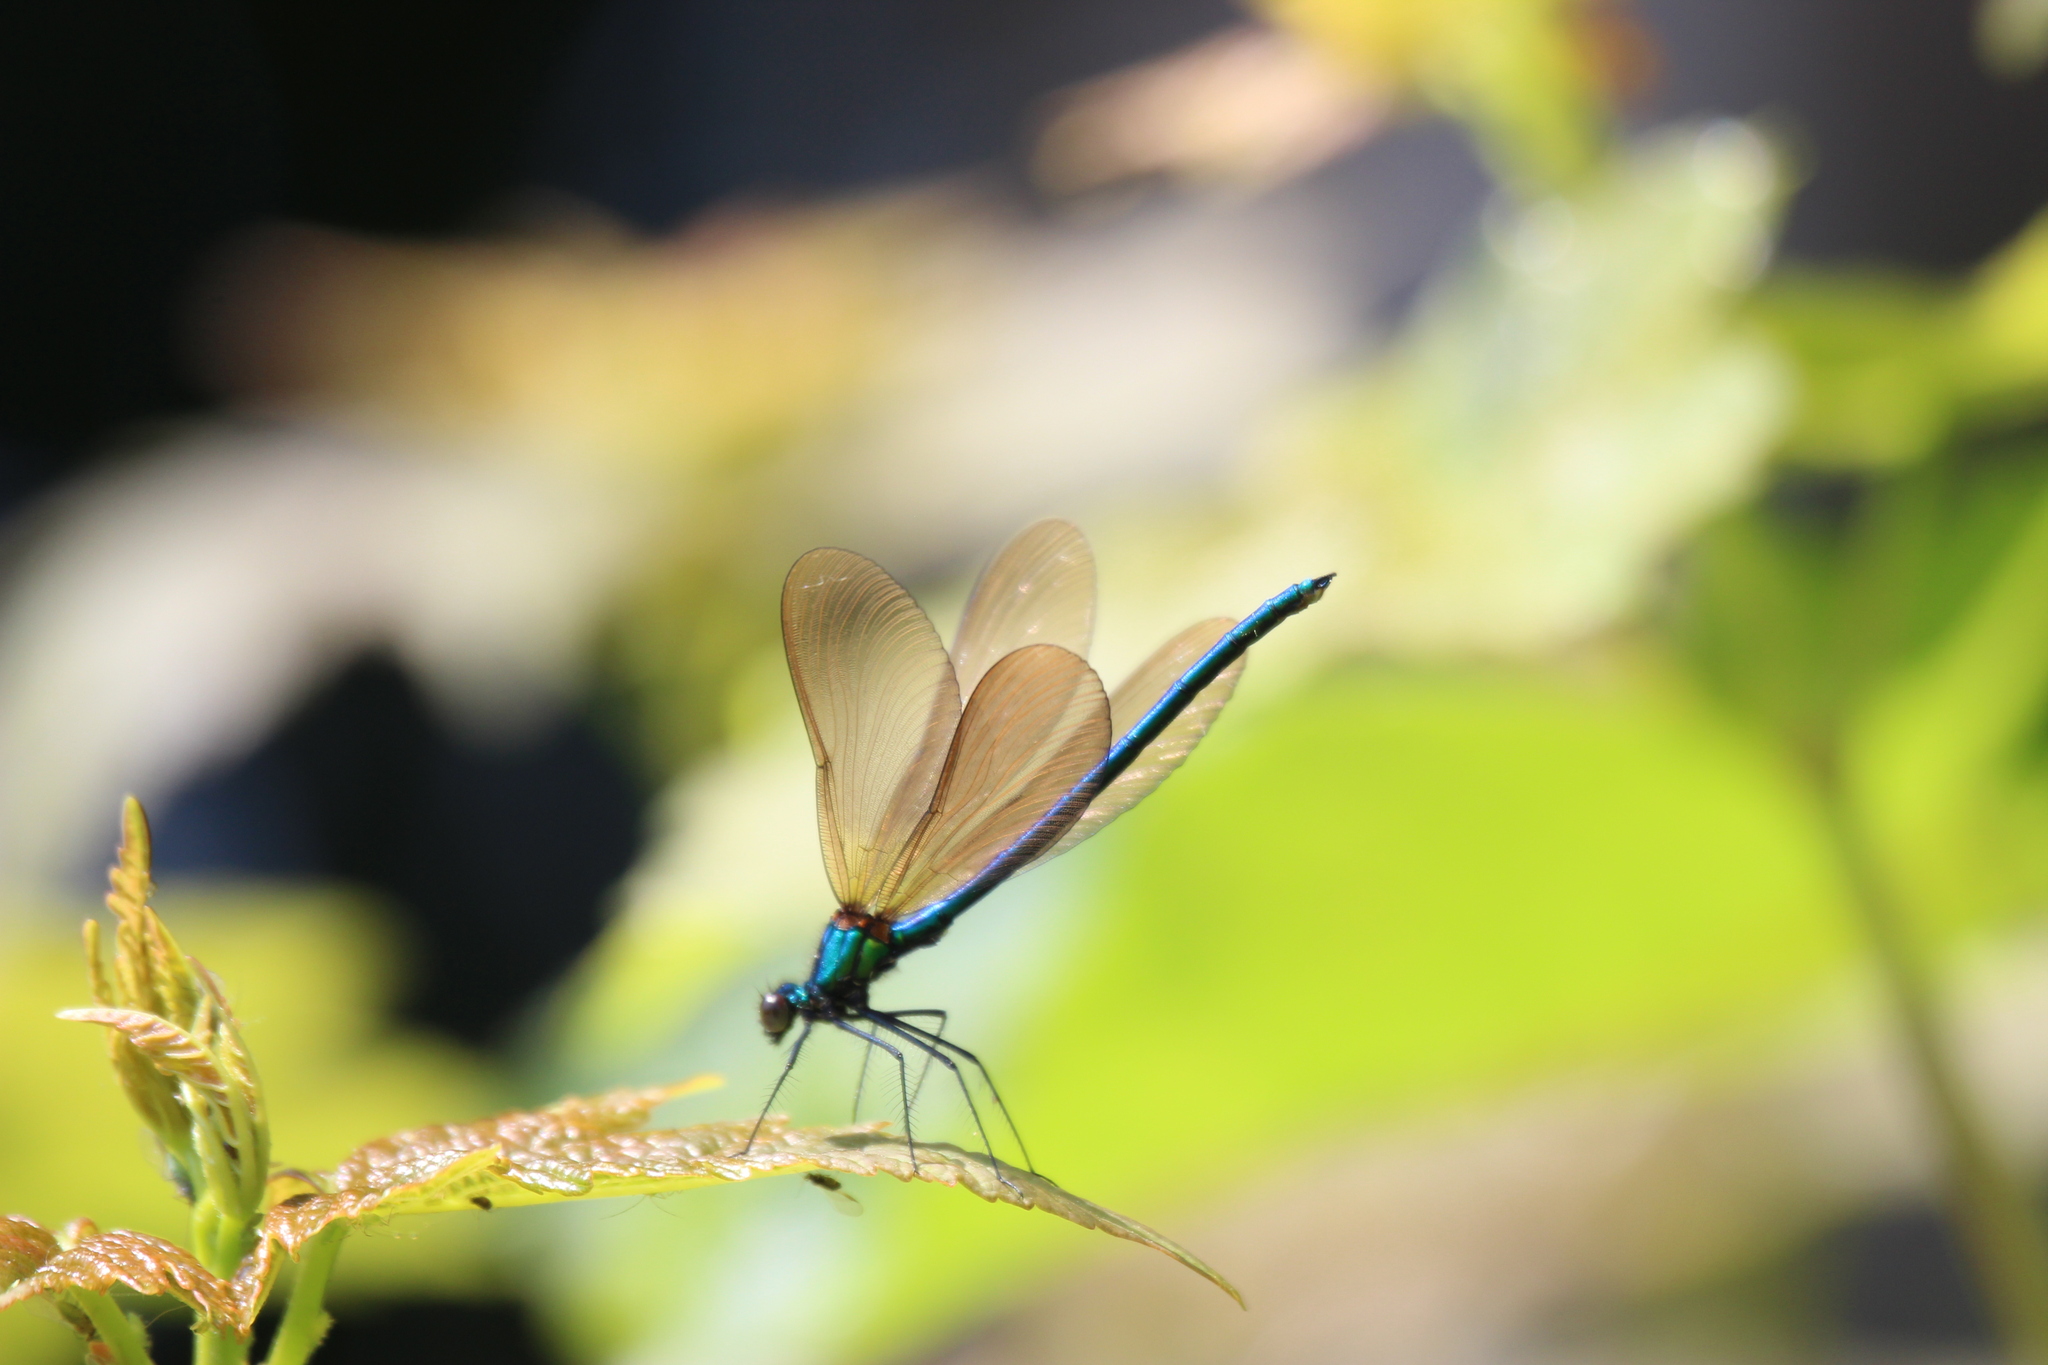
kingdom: Animalia
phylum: Arthropoda
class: Insecta
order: Odonata
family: Calopterygidae
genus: Calopteryx
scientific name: Calopteryx virgo
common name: Beautiful demoiselle
